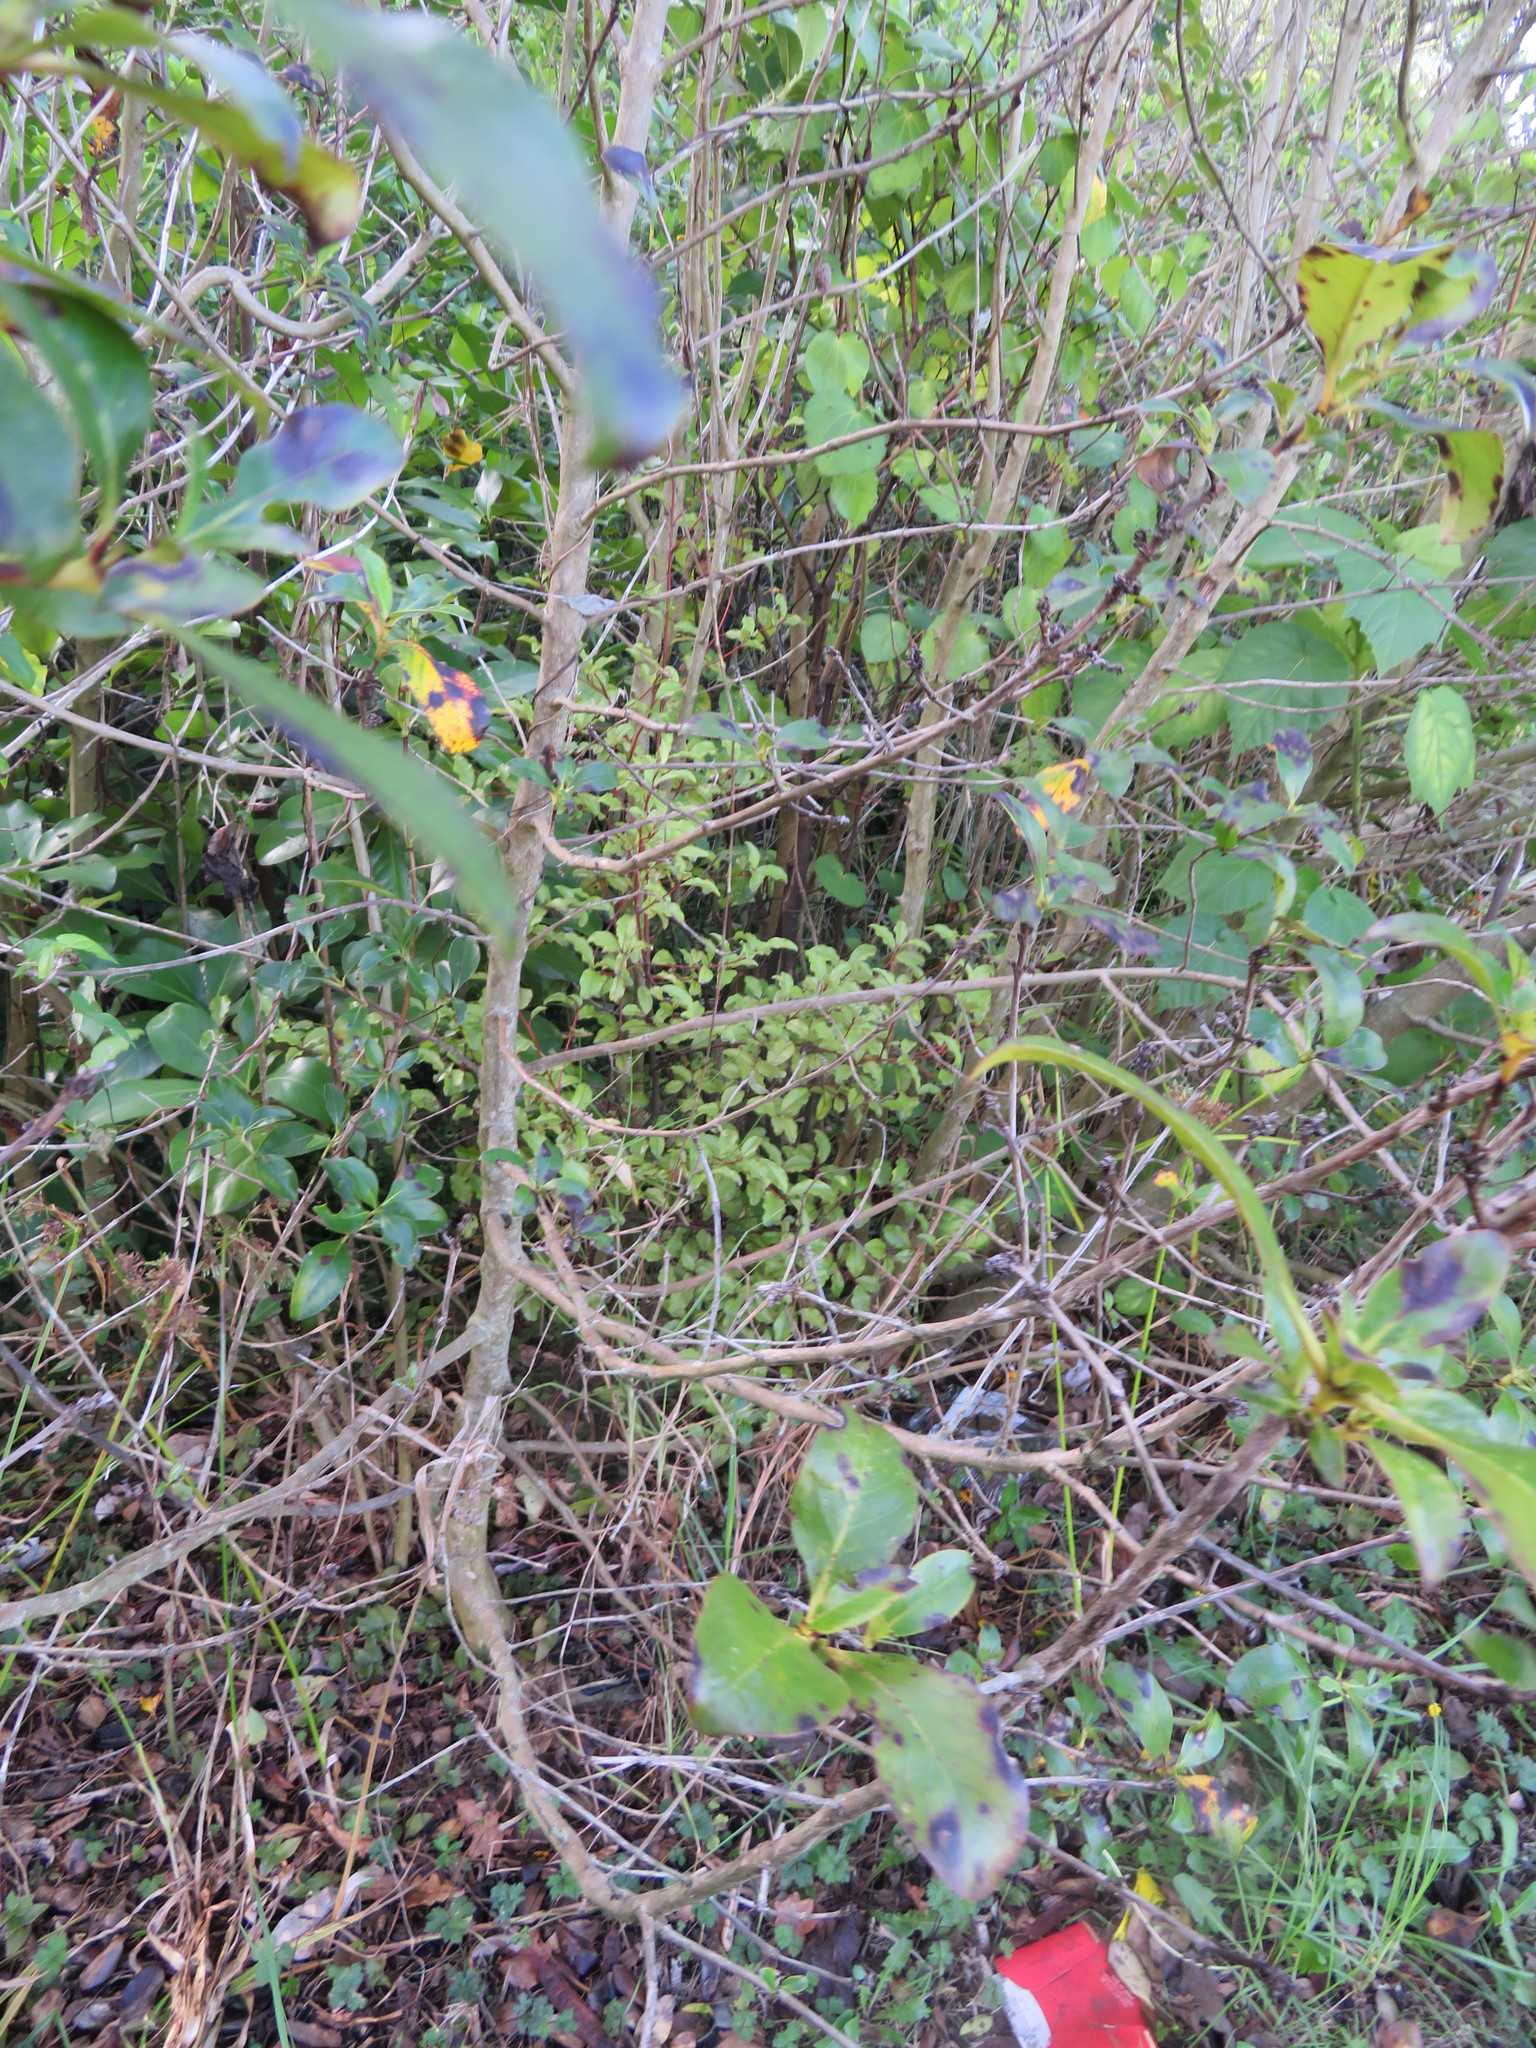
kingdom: Plantae
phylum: Tracheophyta
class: Magnoliopsida
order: Ericales
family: Primulaceae
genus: Myrsine
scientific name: Myrsine australis
